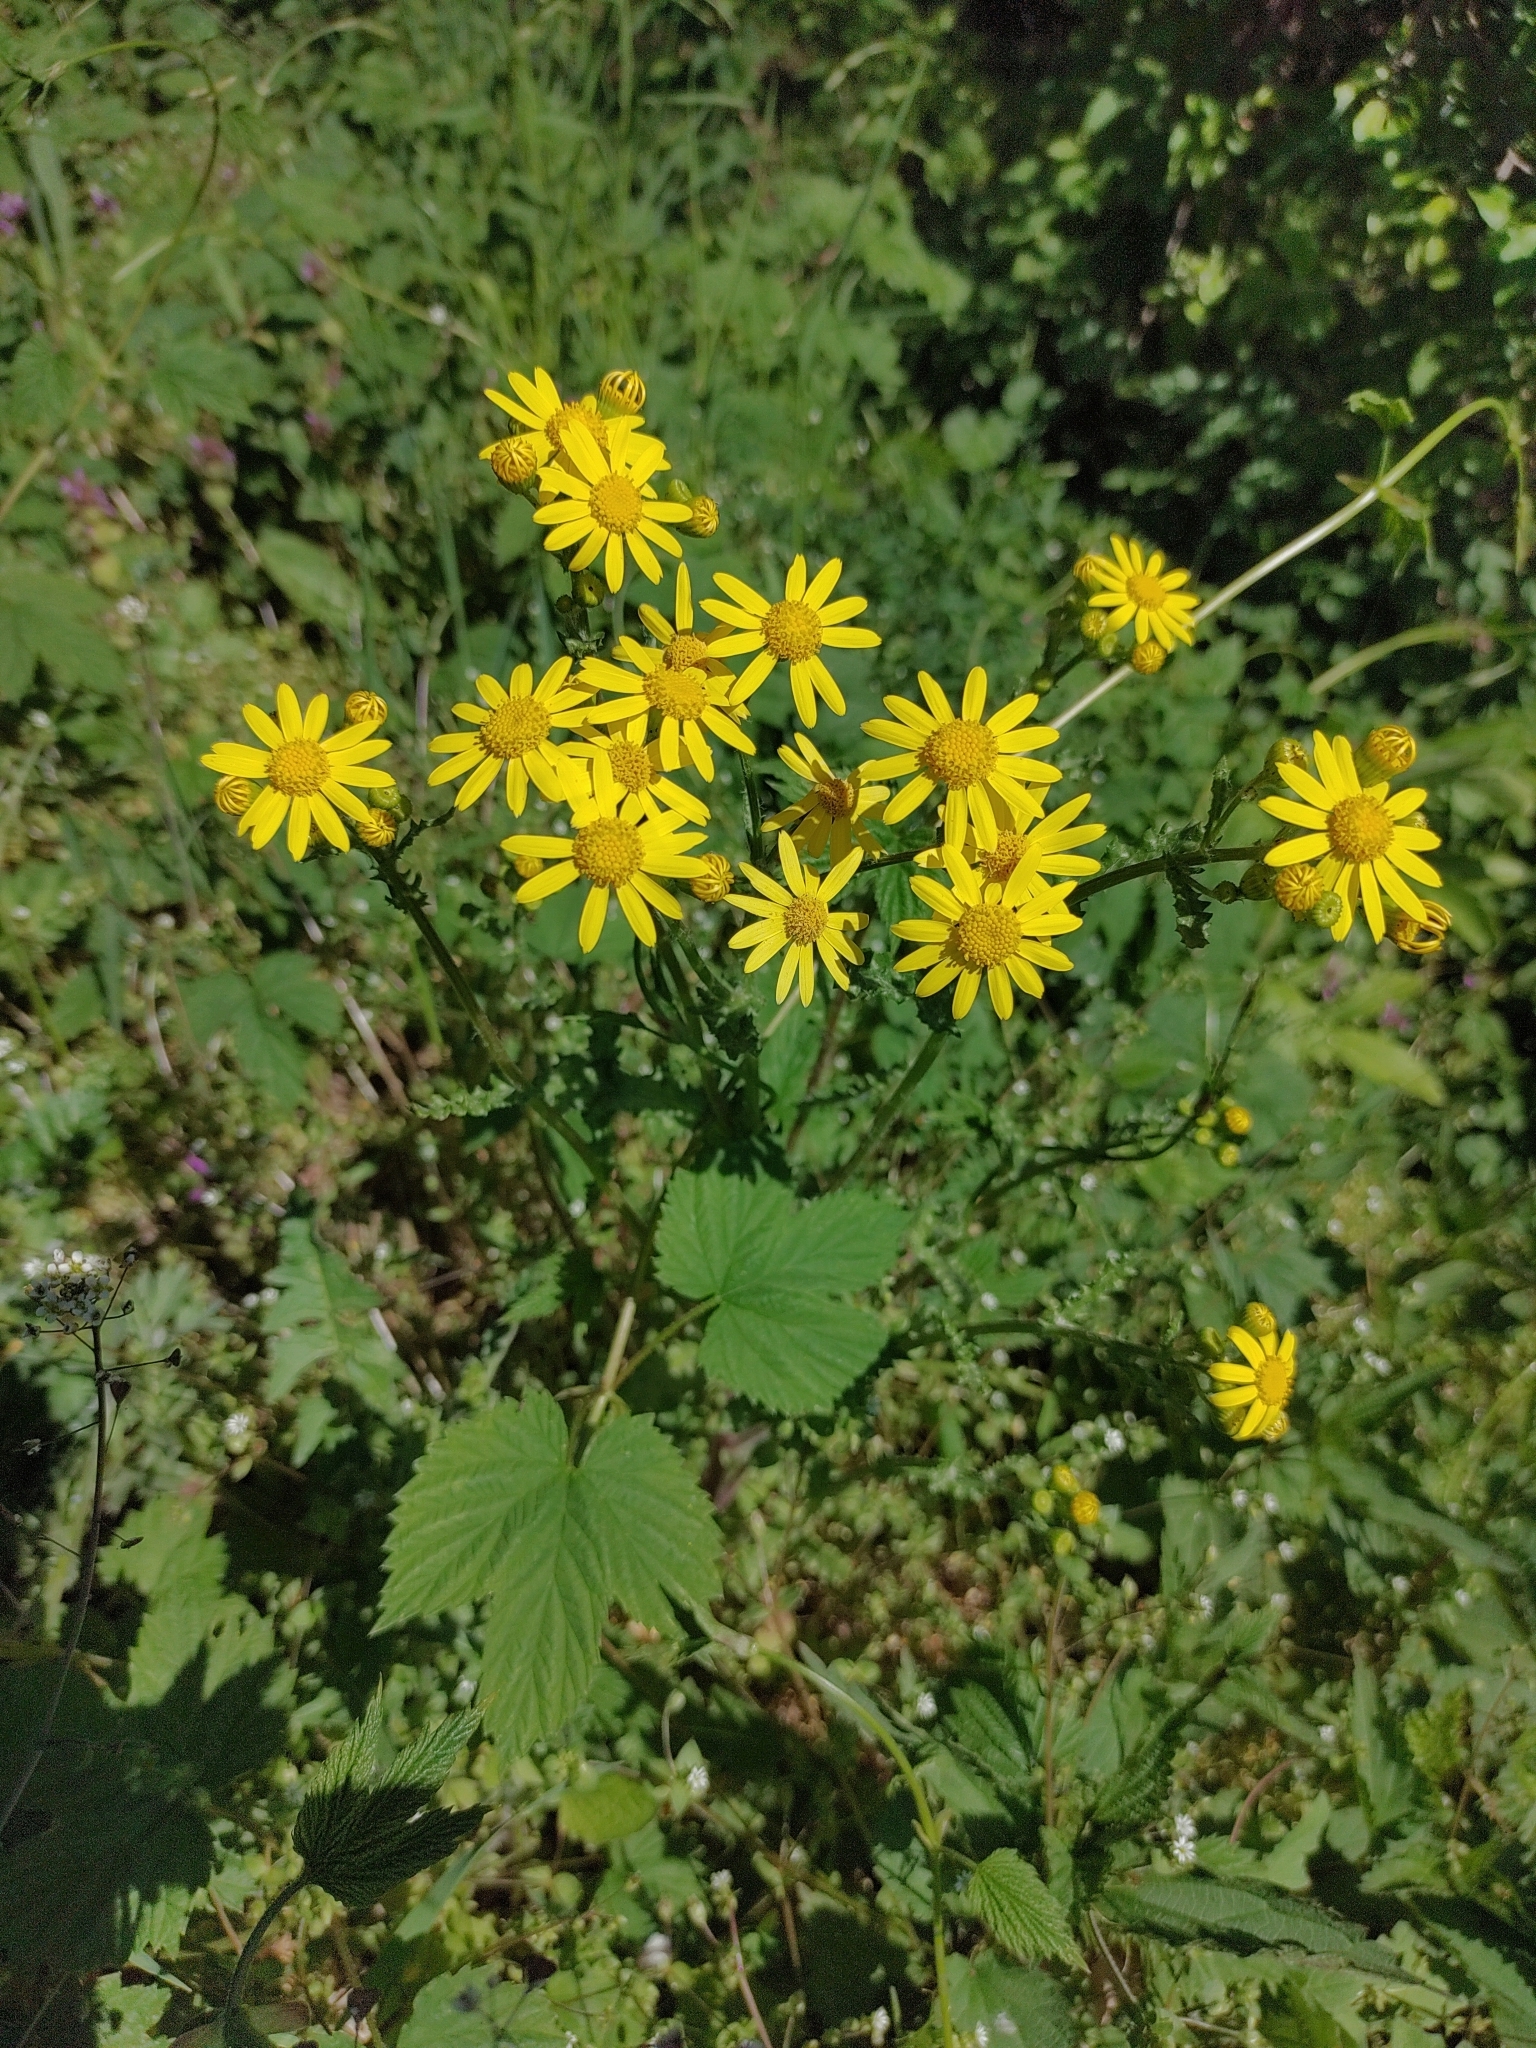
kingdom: Plantae
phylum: Tracheophyta
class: Magnoliopsida
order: Asterales
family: Asteraceae
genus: Senecio
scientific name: Senecio vernalis
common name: Eastern groundsel
